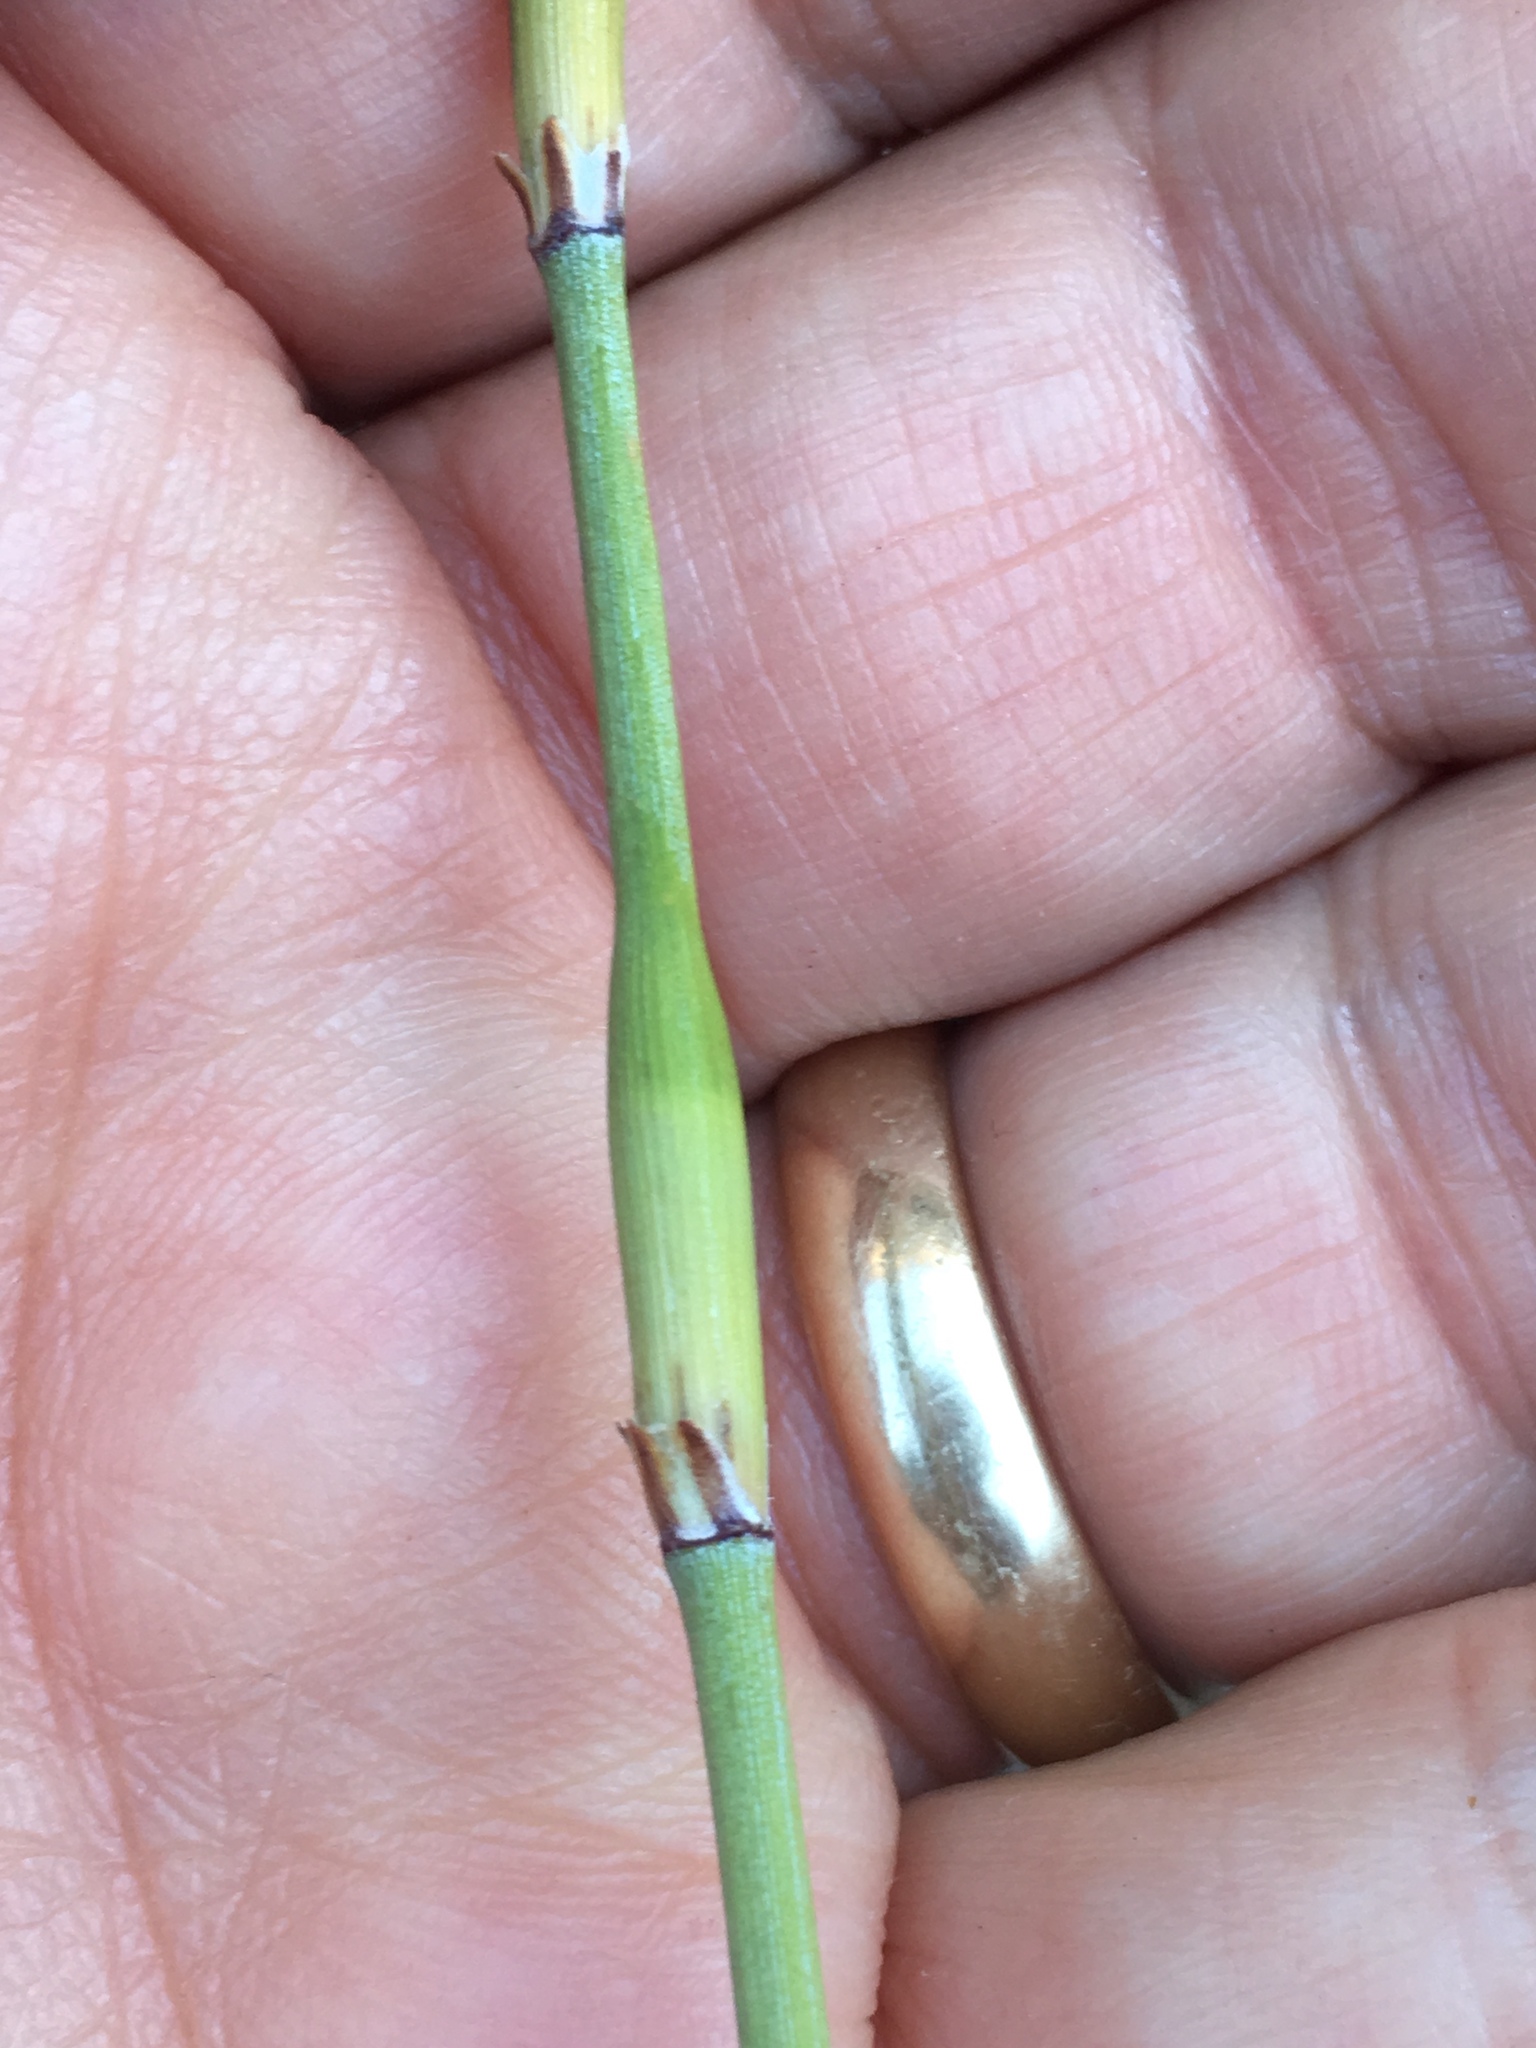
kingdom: Plantae
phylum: Tracheophyta
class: Gnetopsida
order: Ephedrales
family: Ephedraceae
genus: Ephedra
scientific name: Ephedra californica
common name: California ephedra
